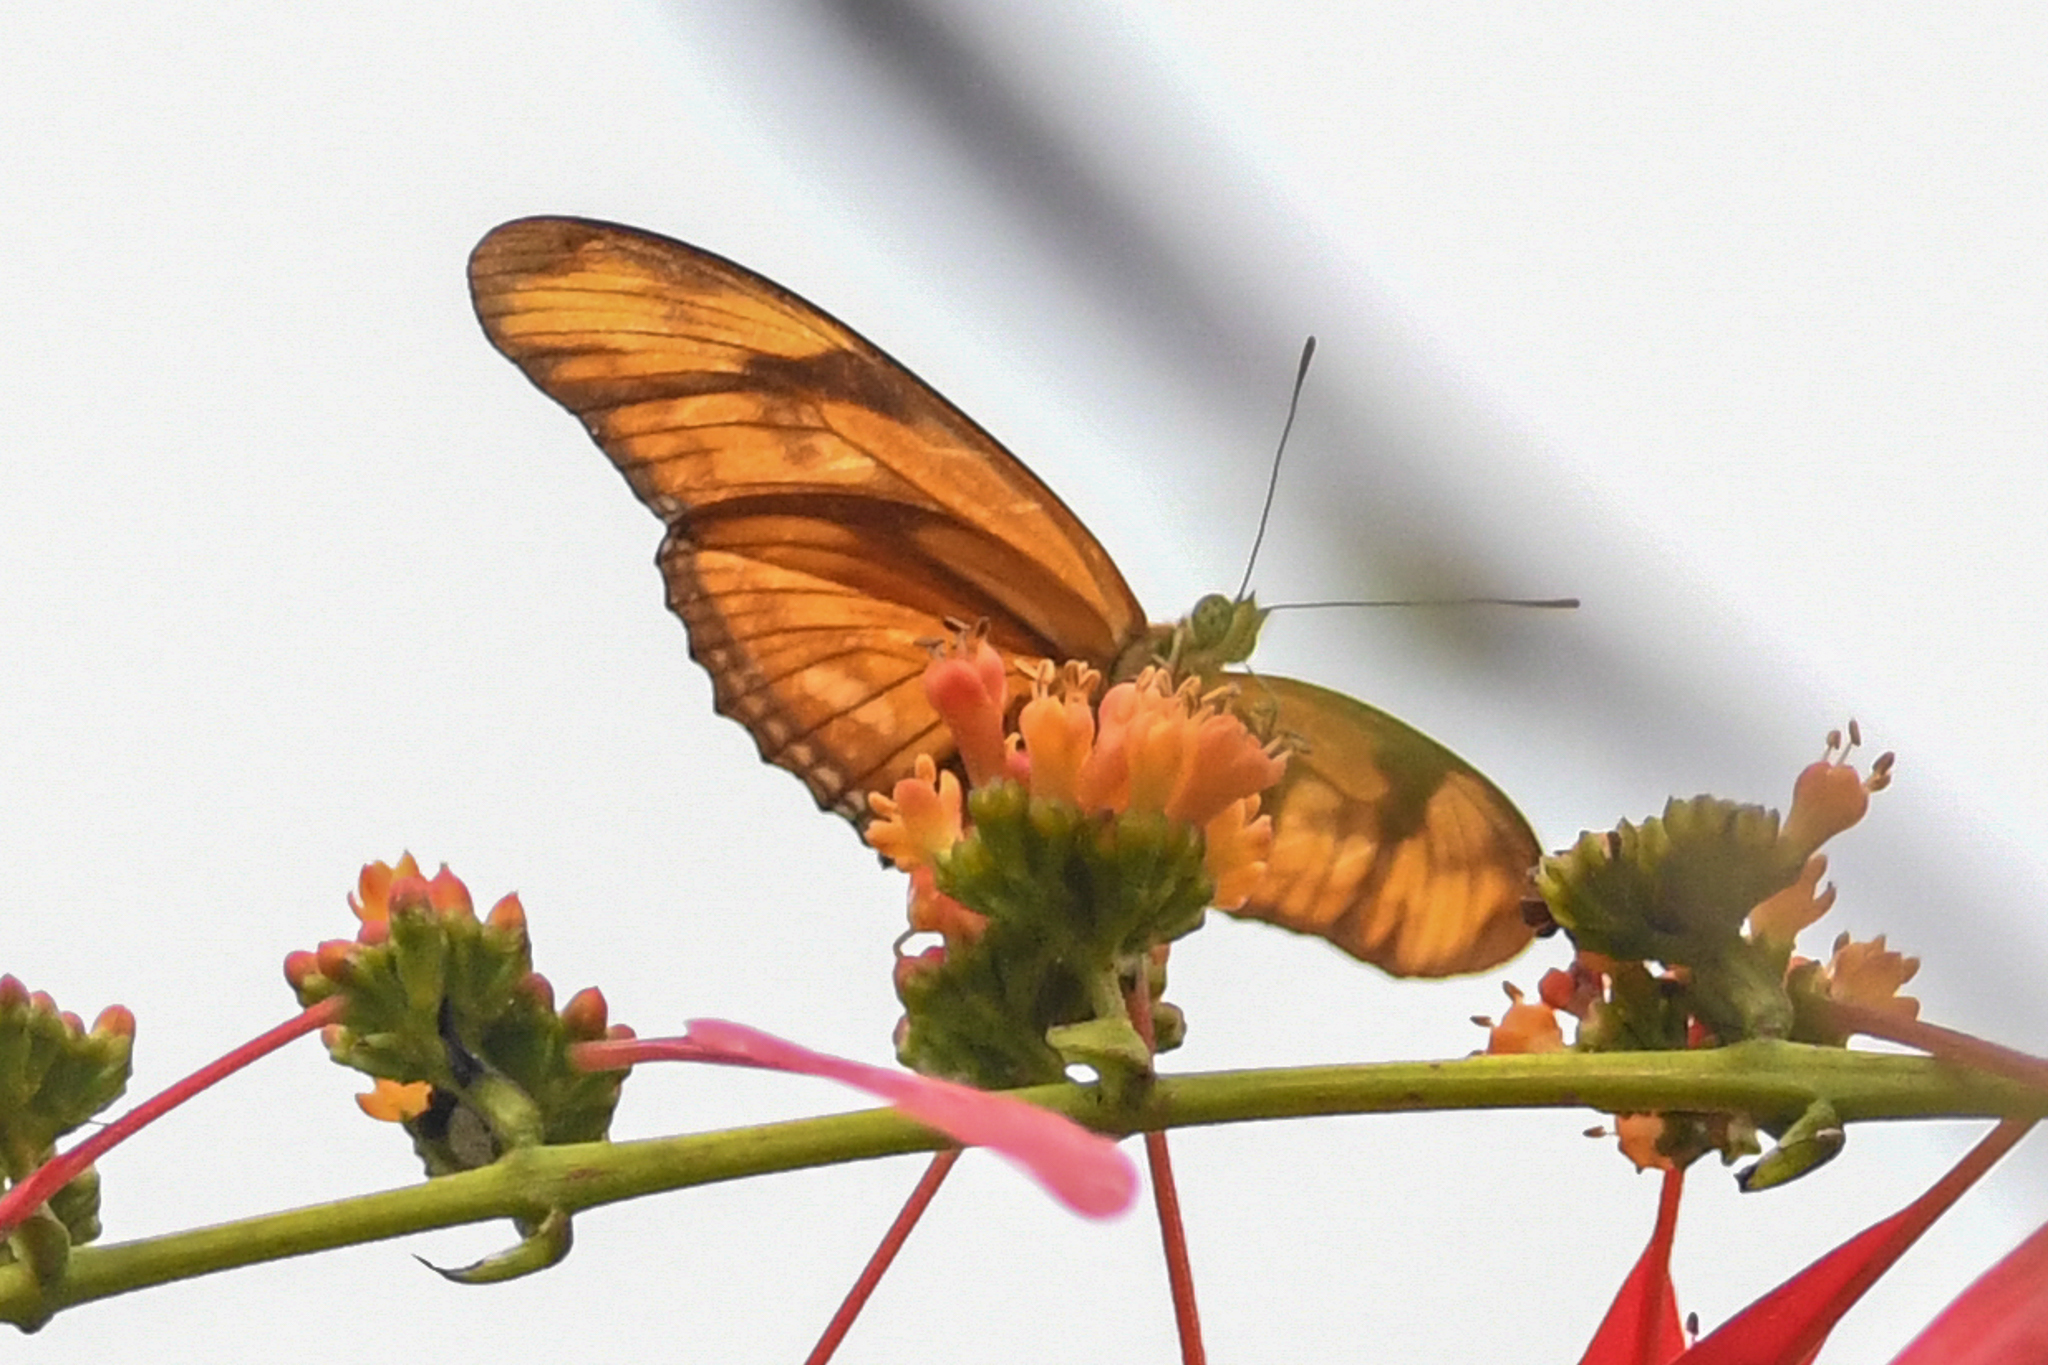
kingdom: Animalia
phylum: Arthropoda
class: Insecta
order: Lepidoptera
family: Nymphalidae
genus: Dryas
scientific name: Dryas iulia
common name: Flambeau
